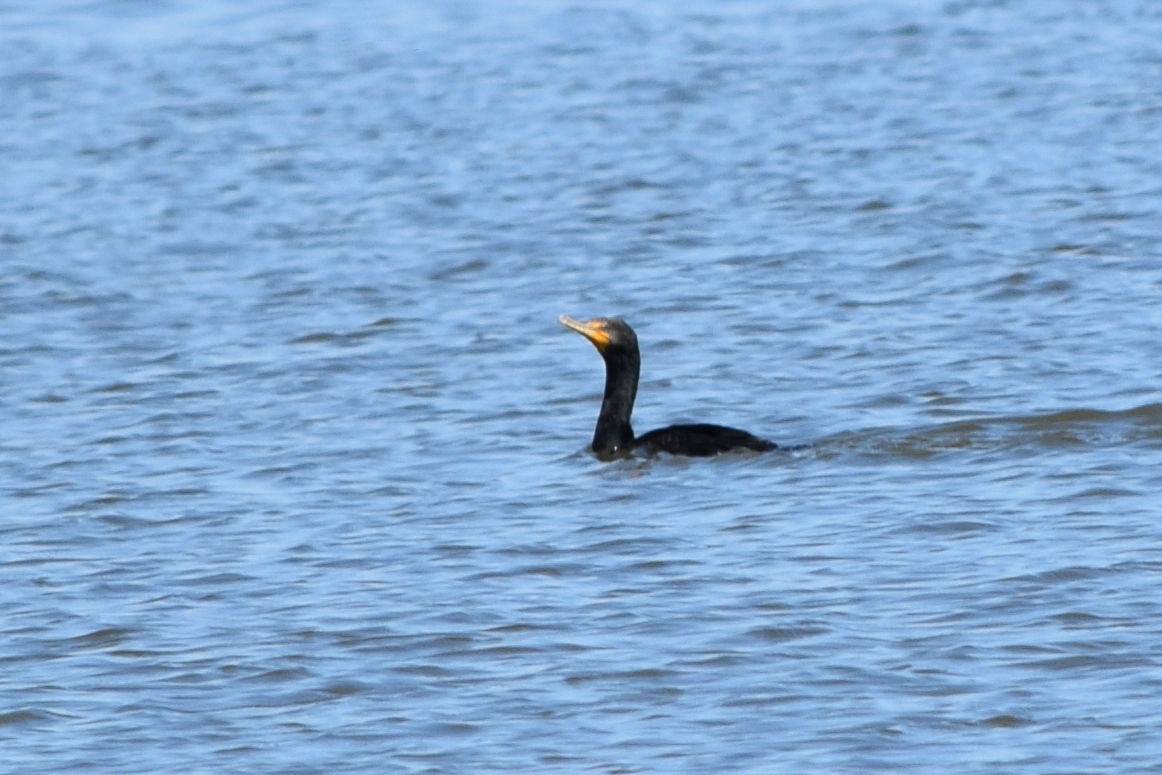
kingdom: Animalia
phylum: Chordata
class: Aves
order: Suliformes
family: Phalacrocoracidae
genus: Phalacrocorax
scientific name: Phalacrocorax auritus
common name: Double-crested cormorant
